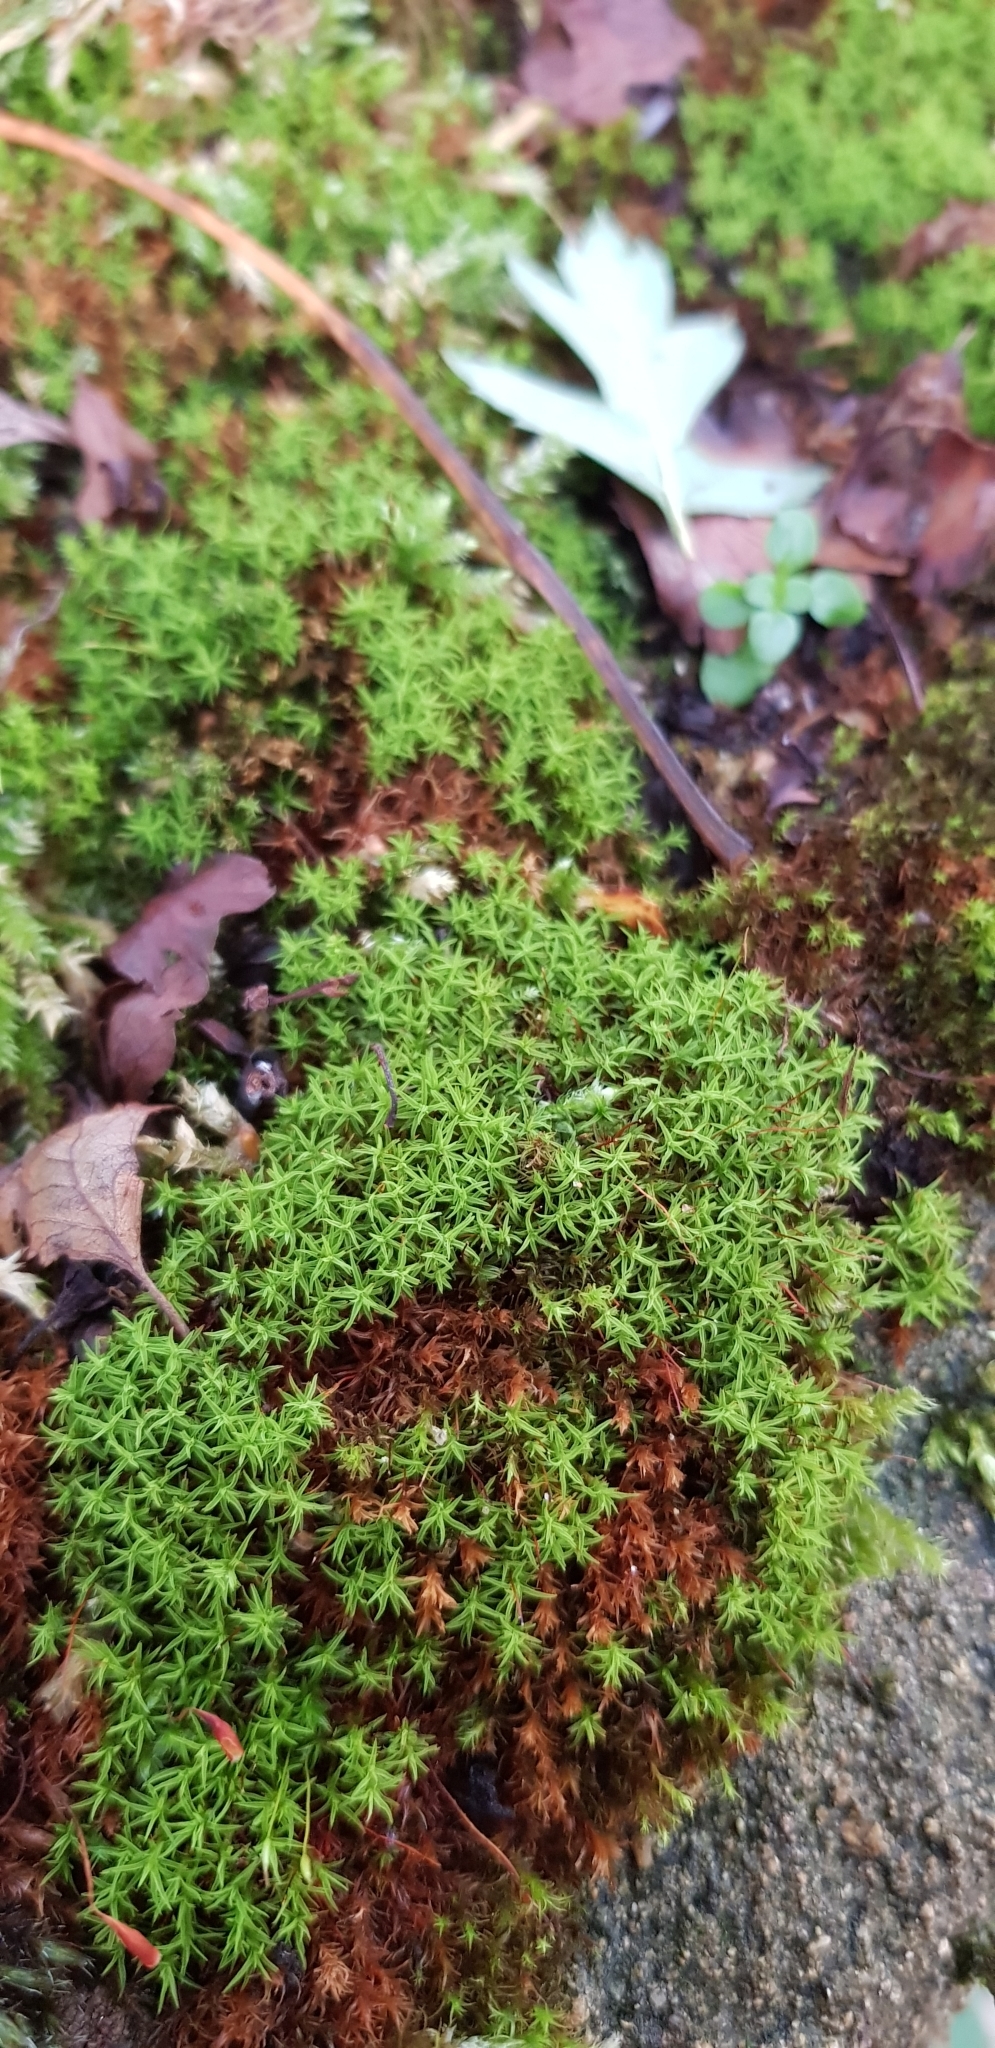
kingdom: Plantae
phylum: Bryophyta
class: Bryopsida
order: Pottiales
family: Pottiaceae
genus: Bryoerythrophyllum
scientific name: Bryoerythrophyllum recurvirostrum
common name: Red beard moss
